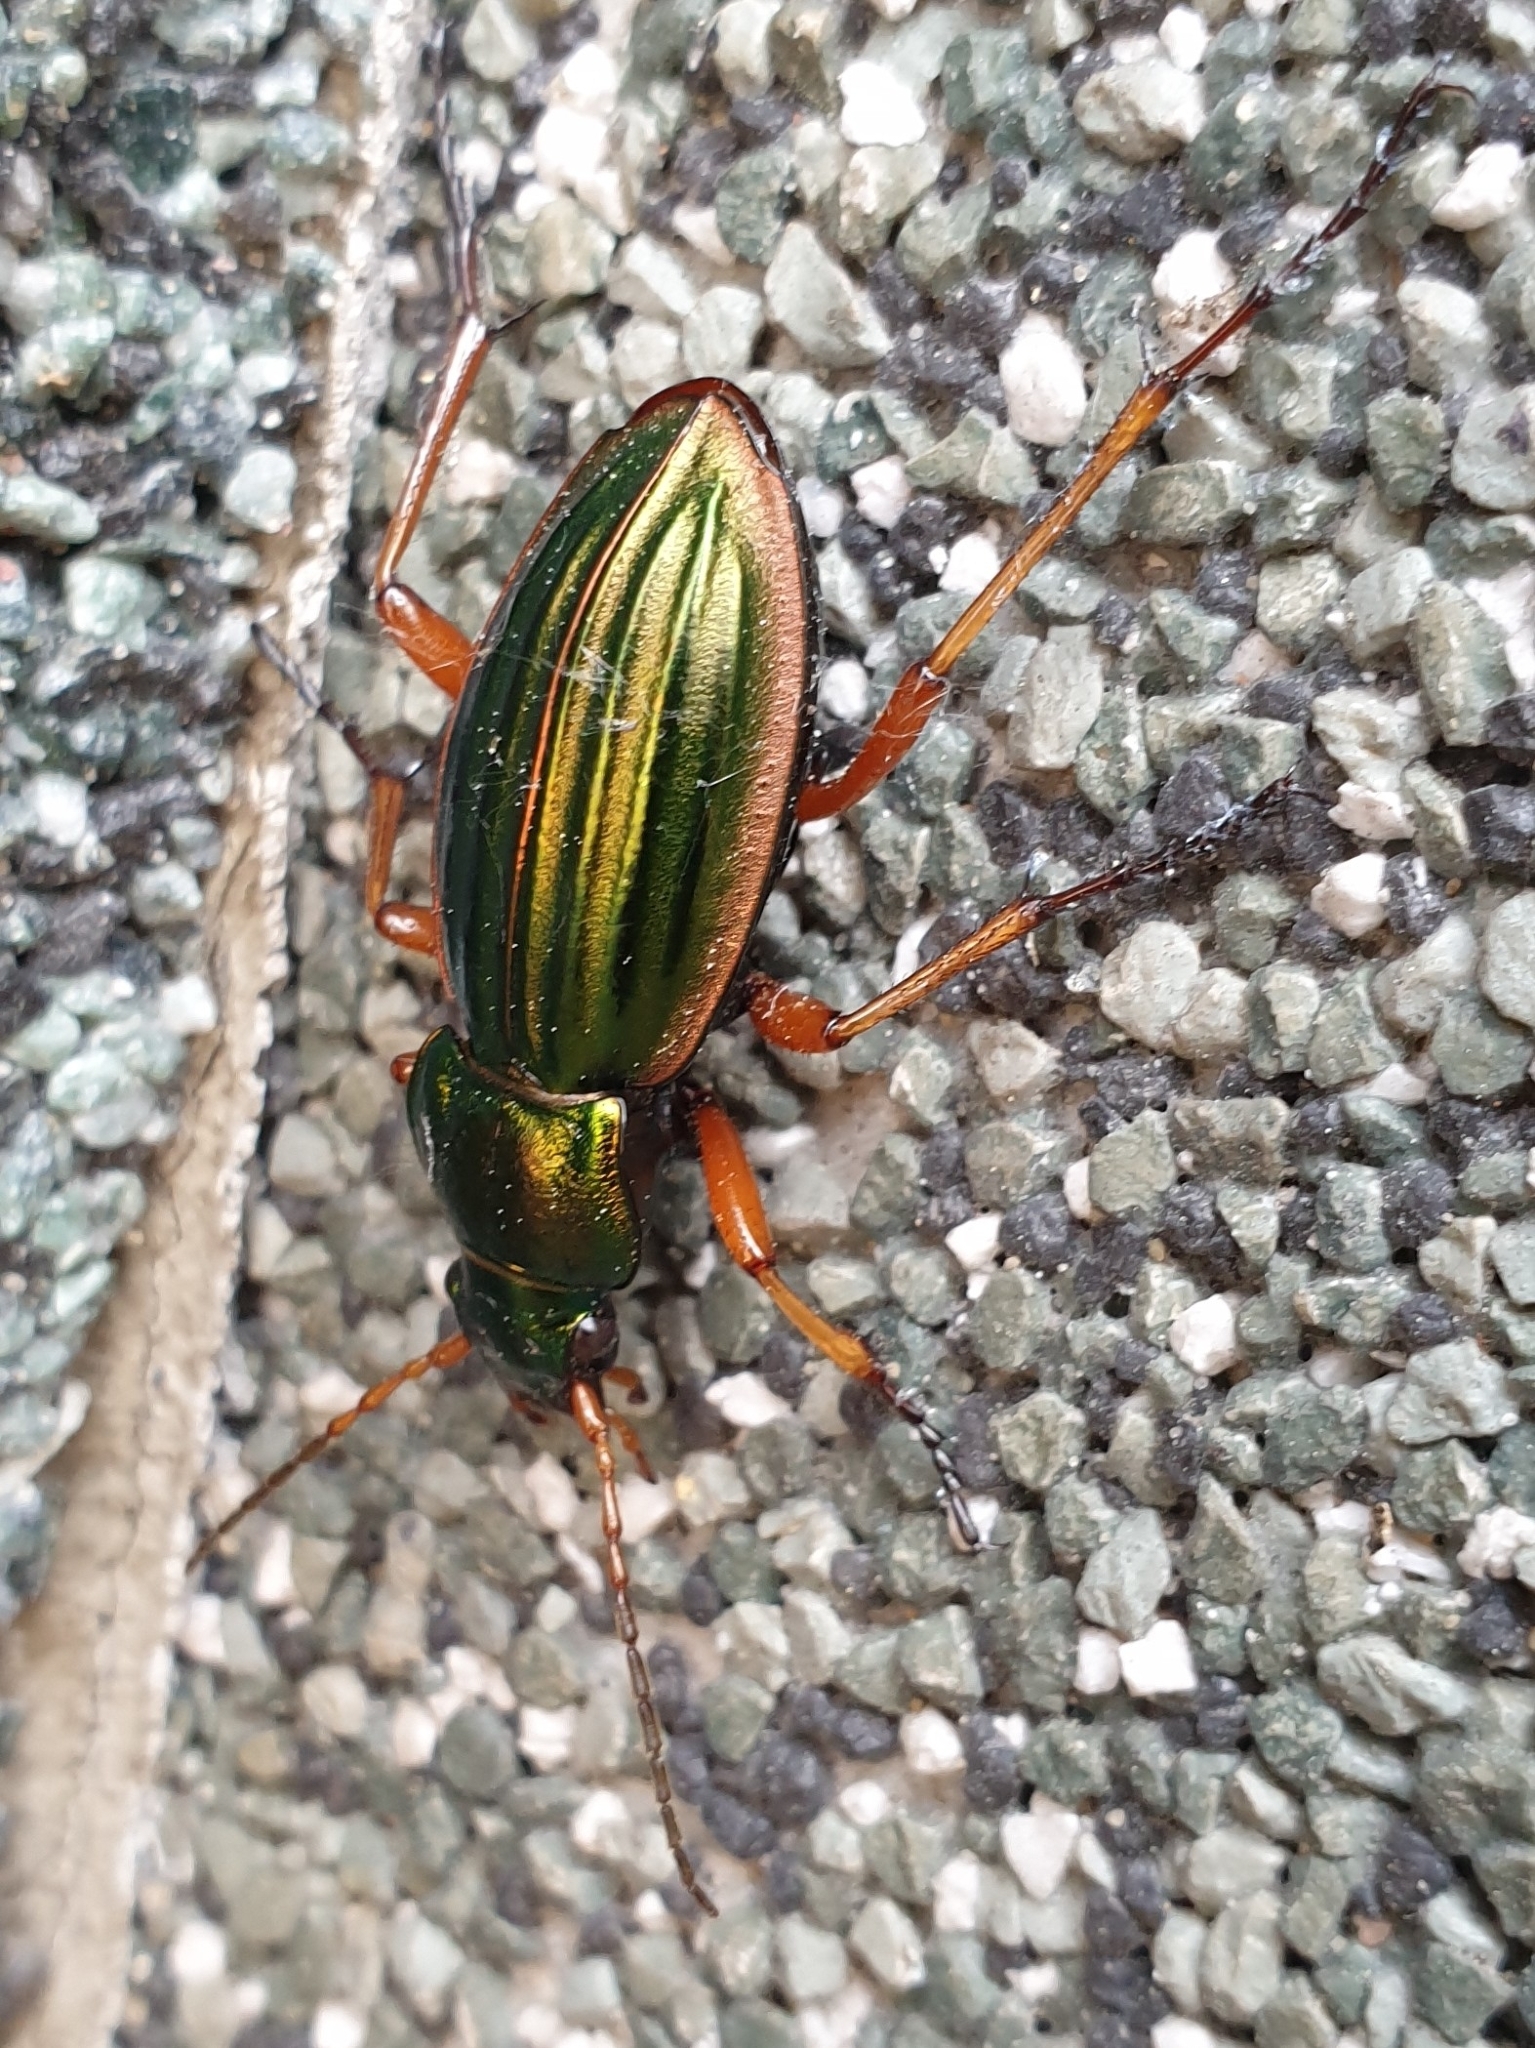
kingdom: Animalia
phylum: Arthropoda
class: Insecta
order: Coleoptera
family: Carabidae
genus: Carabus
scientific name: Carabus auratus
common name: Golden ground beetle
